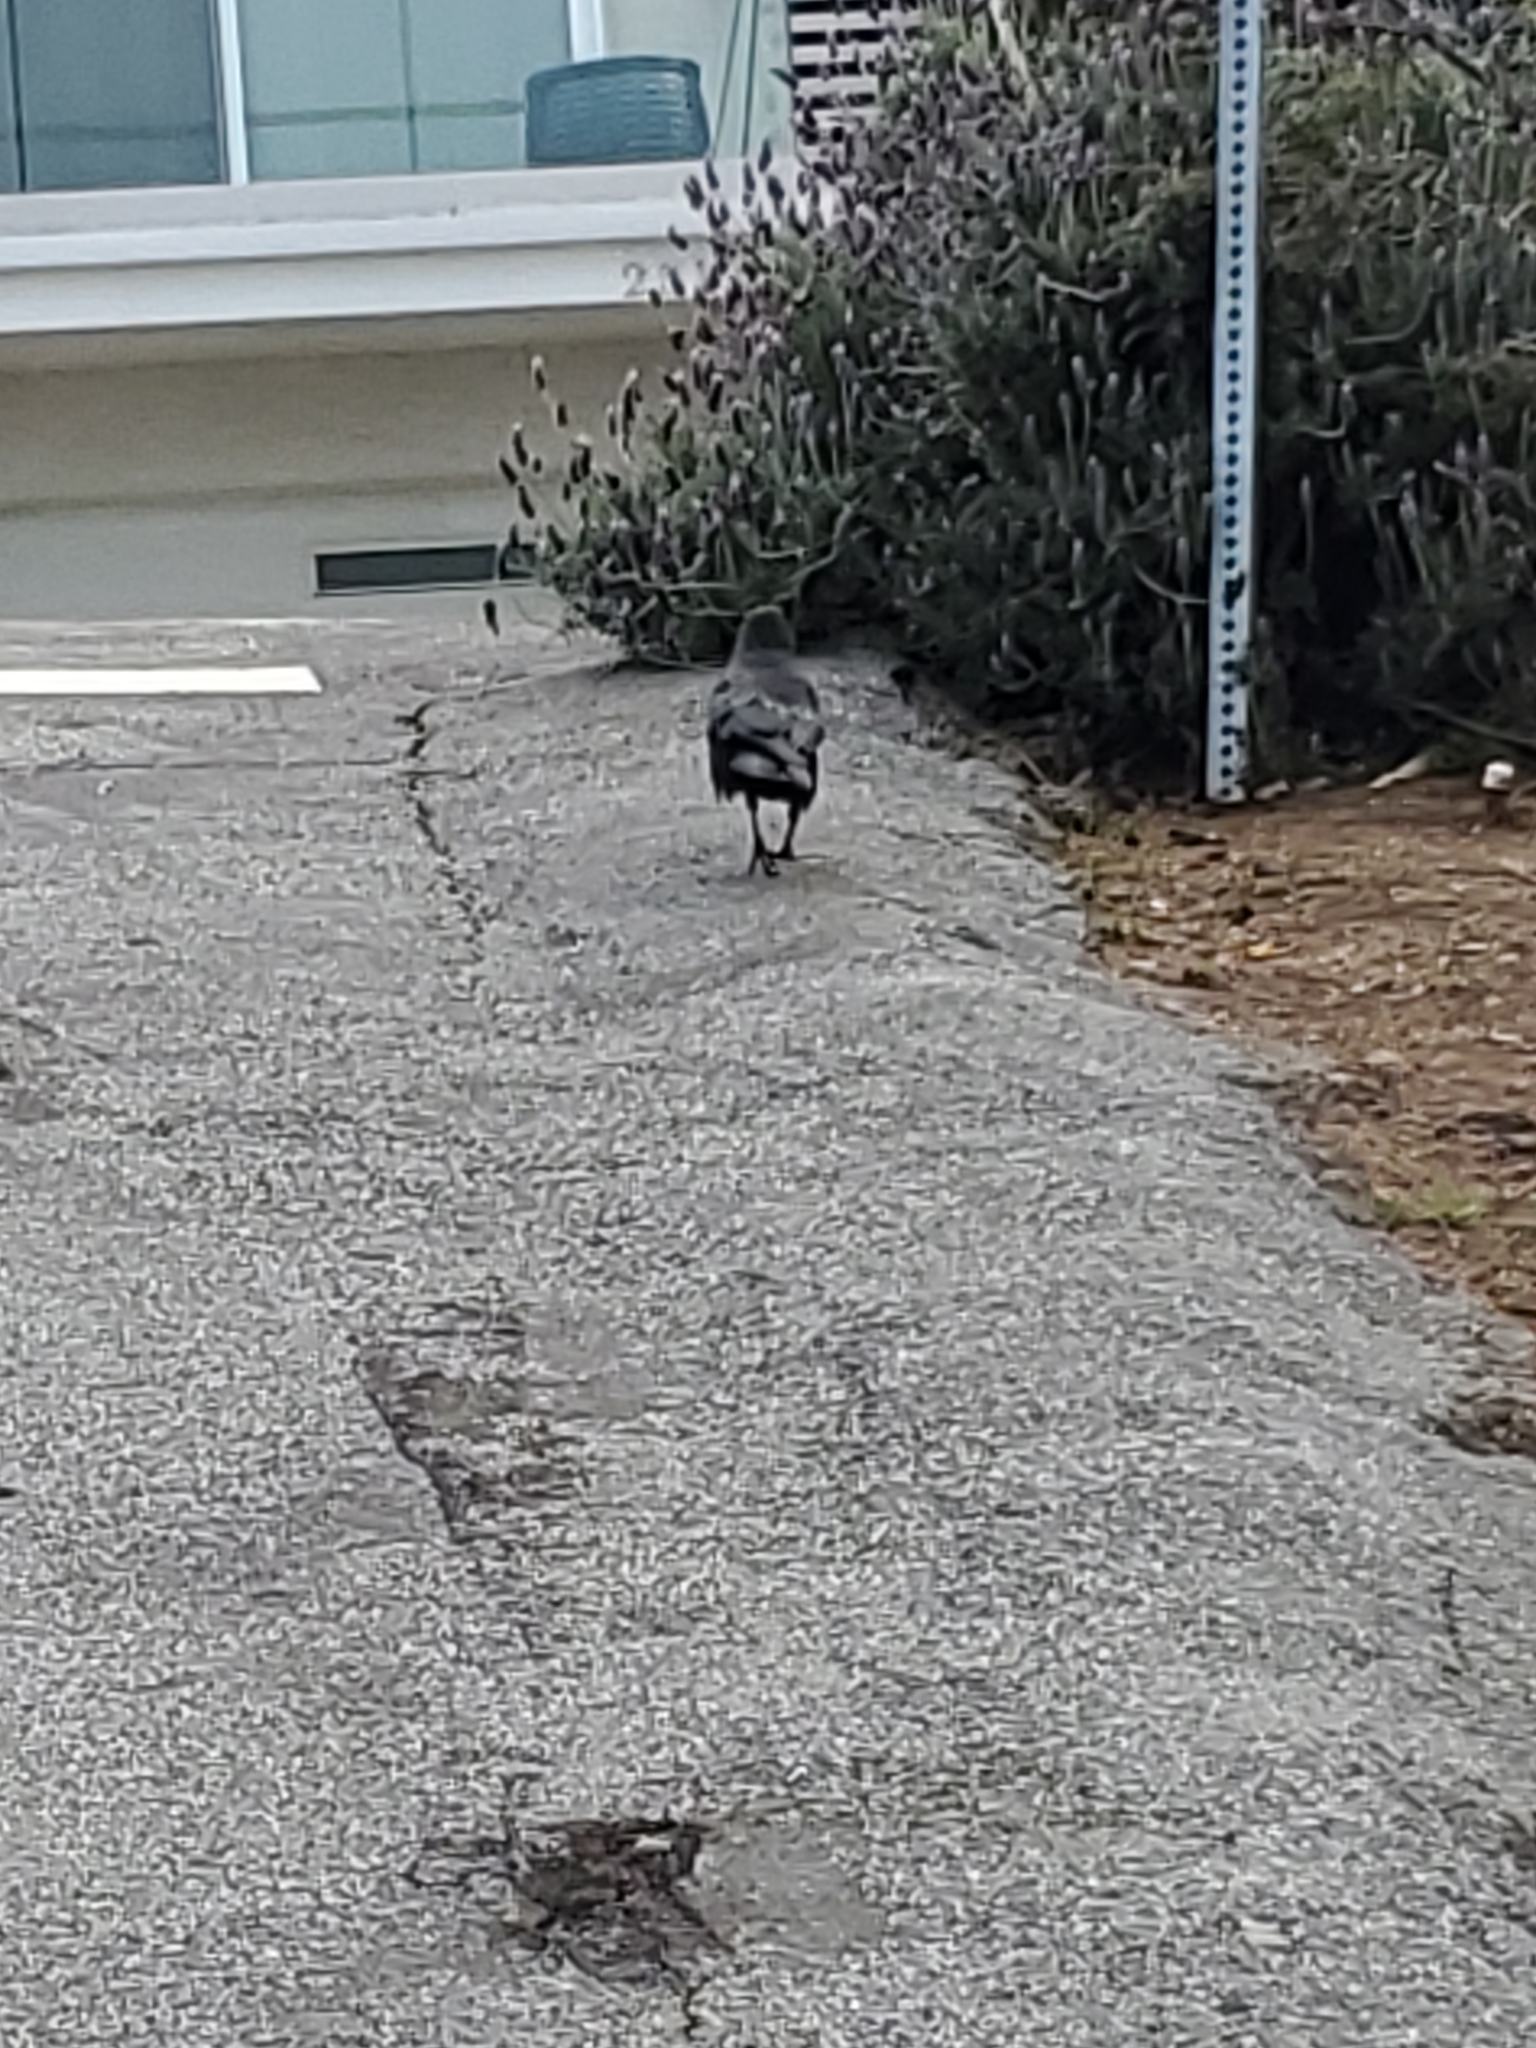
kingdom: Animalia
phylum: Chordata
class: Aves
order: Passeriformes
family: Corvidae
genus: Corvus
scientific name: Corvus brachyrhynchos
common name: American crow
